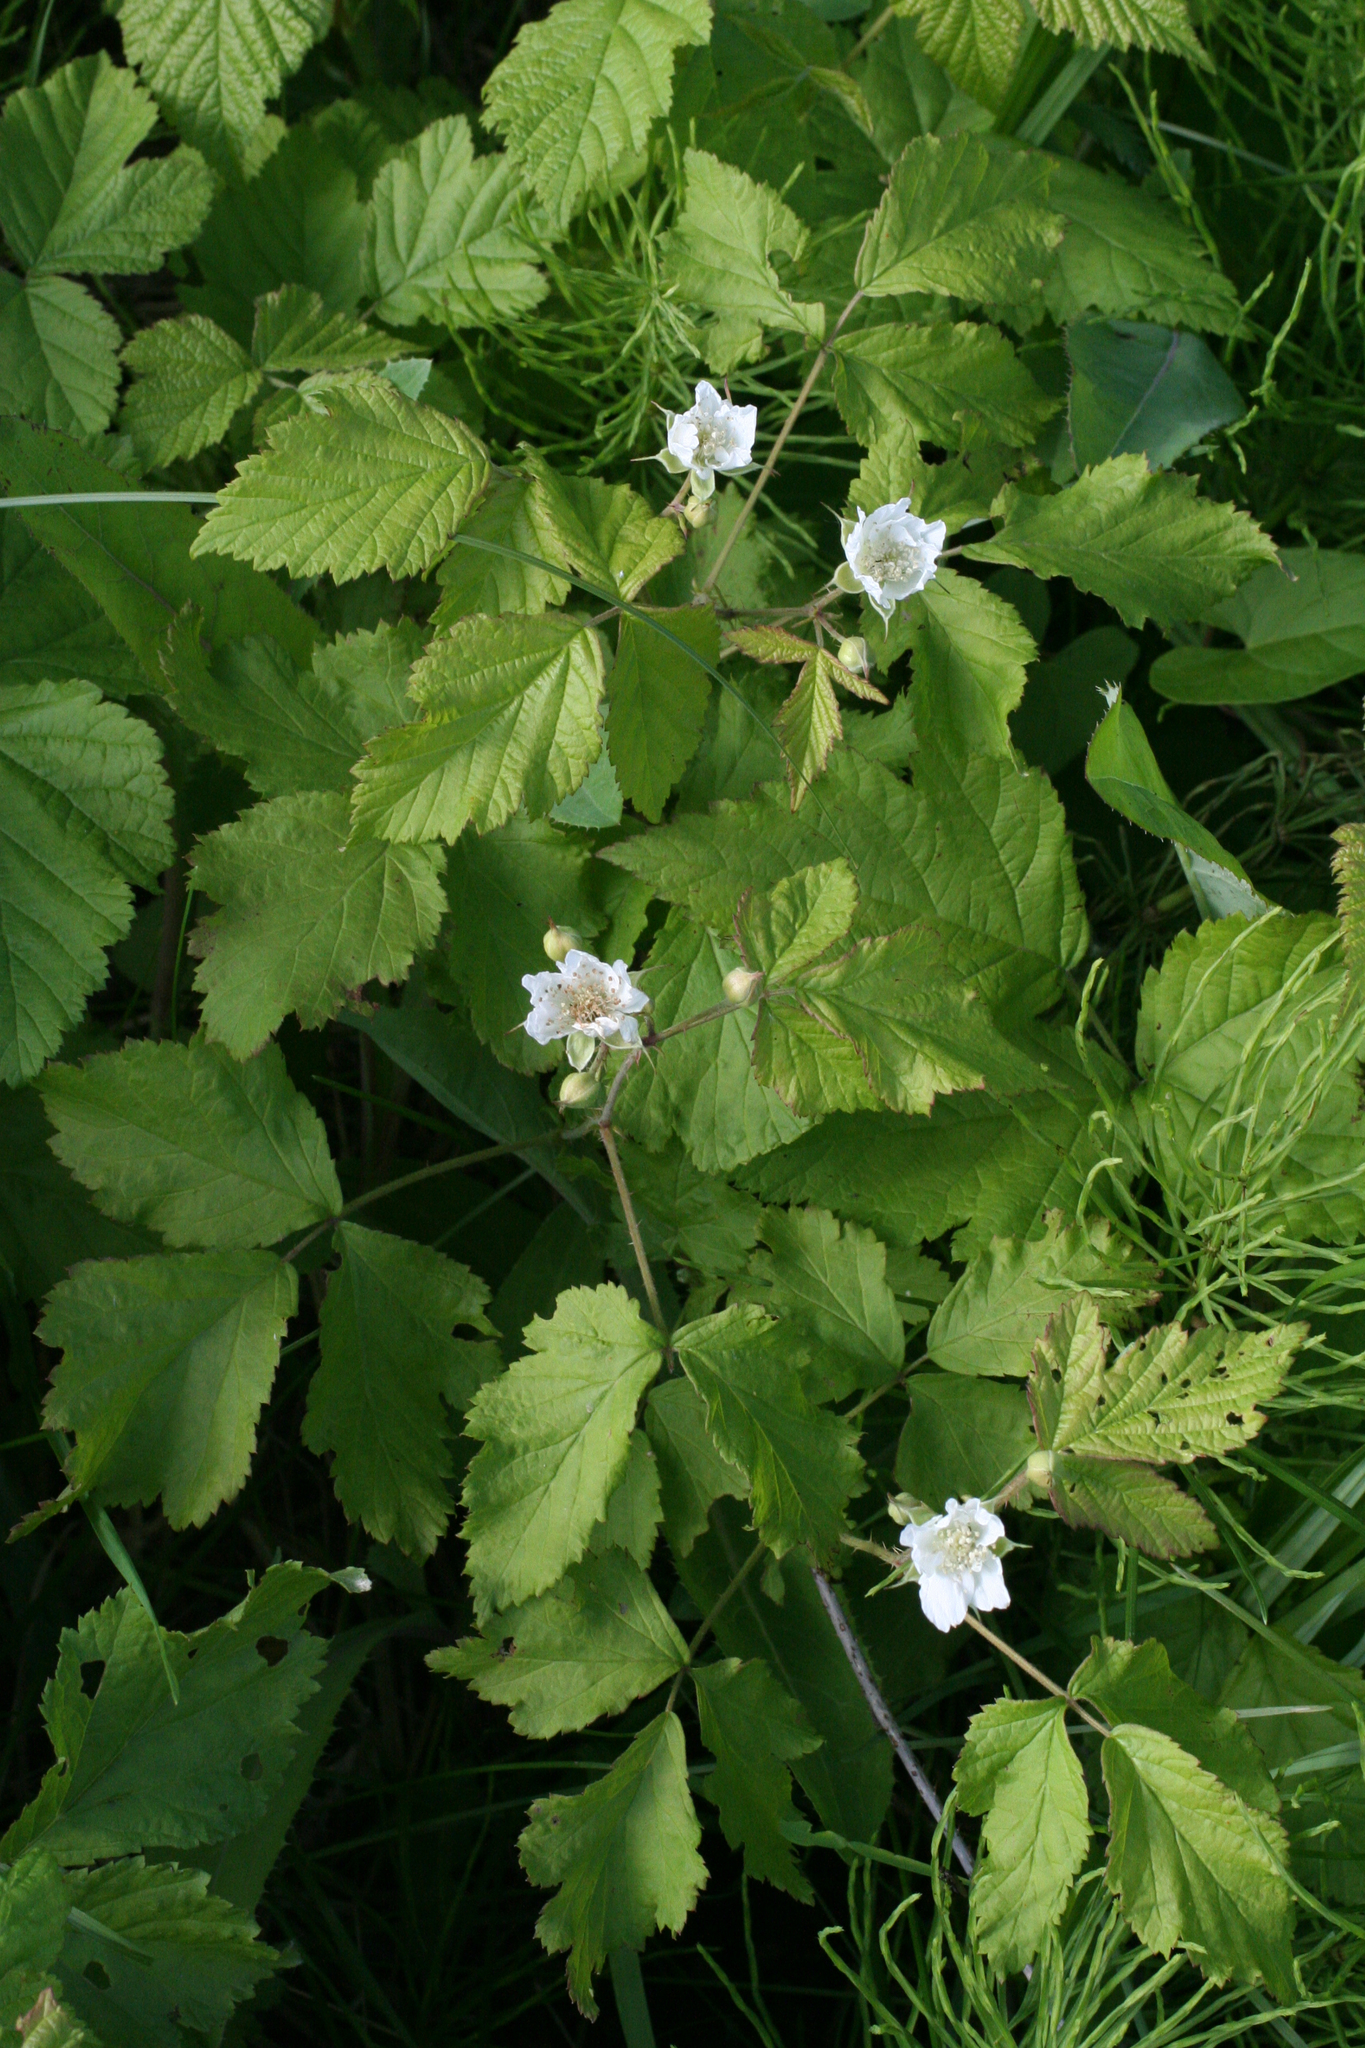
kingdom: Plantae
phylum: Tracheophyta
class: Magnoliopsida
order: Rosales
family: Rosaceae
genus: Rubus
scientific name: Rubus caesius
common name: Dewberry
